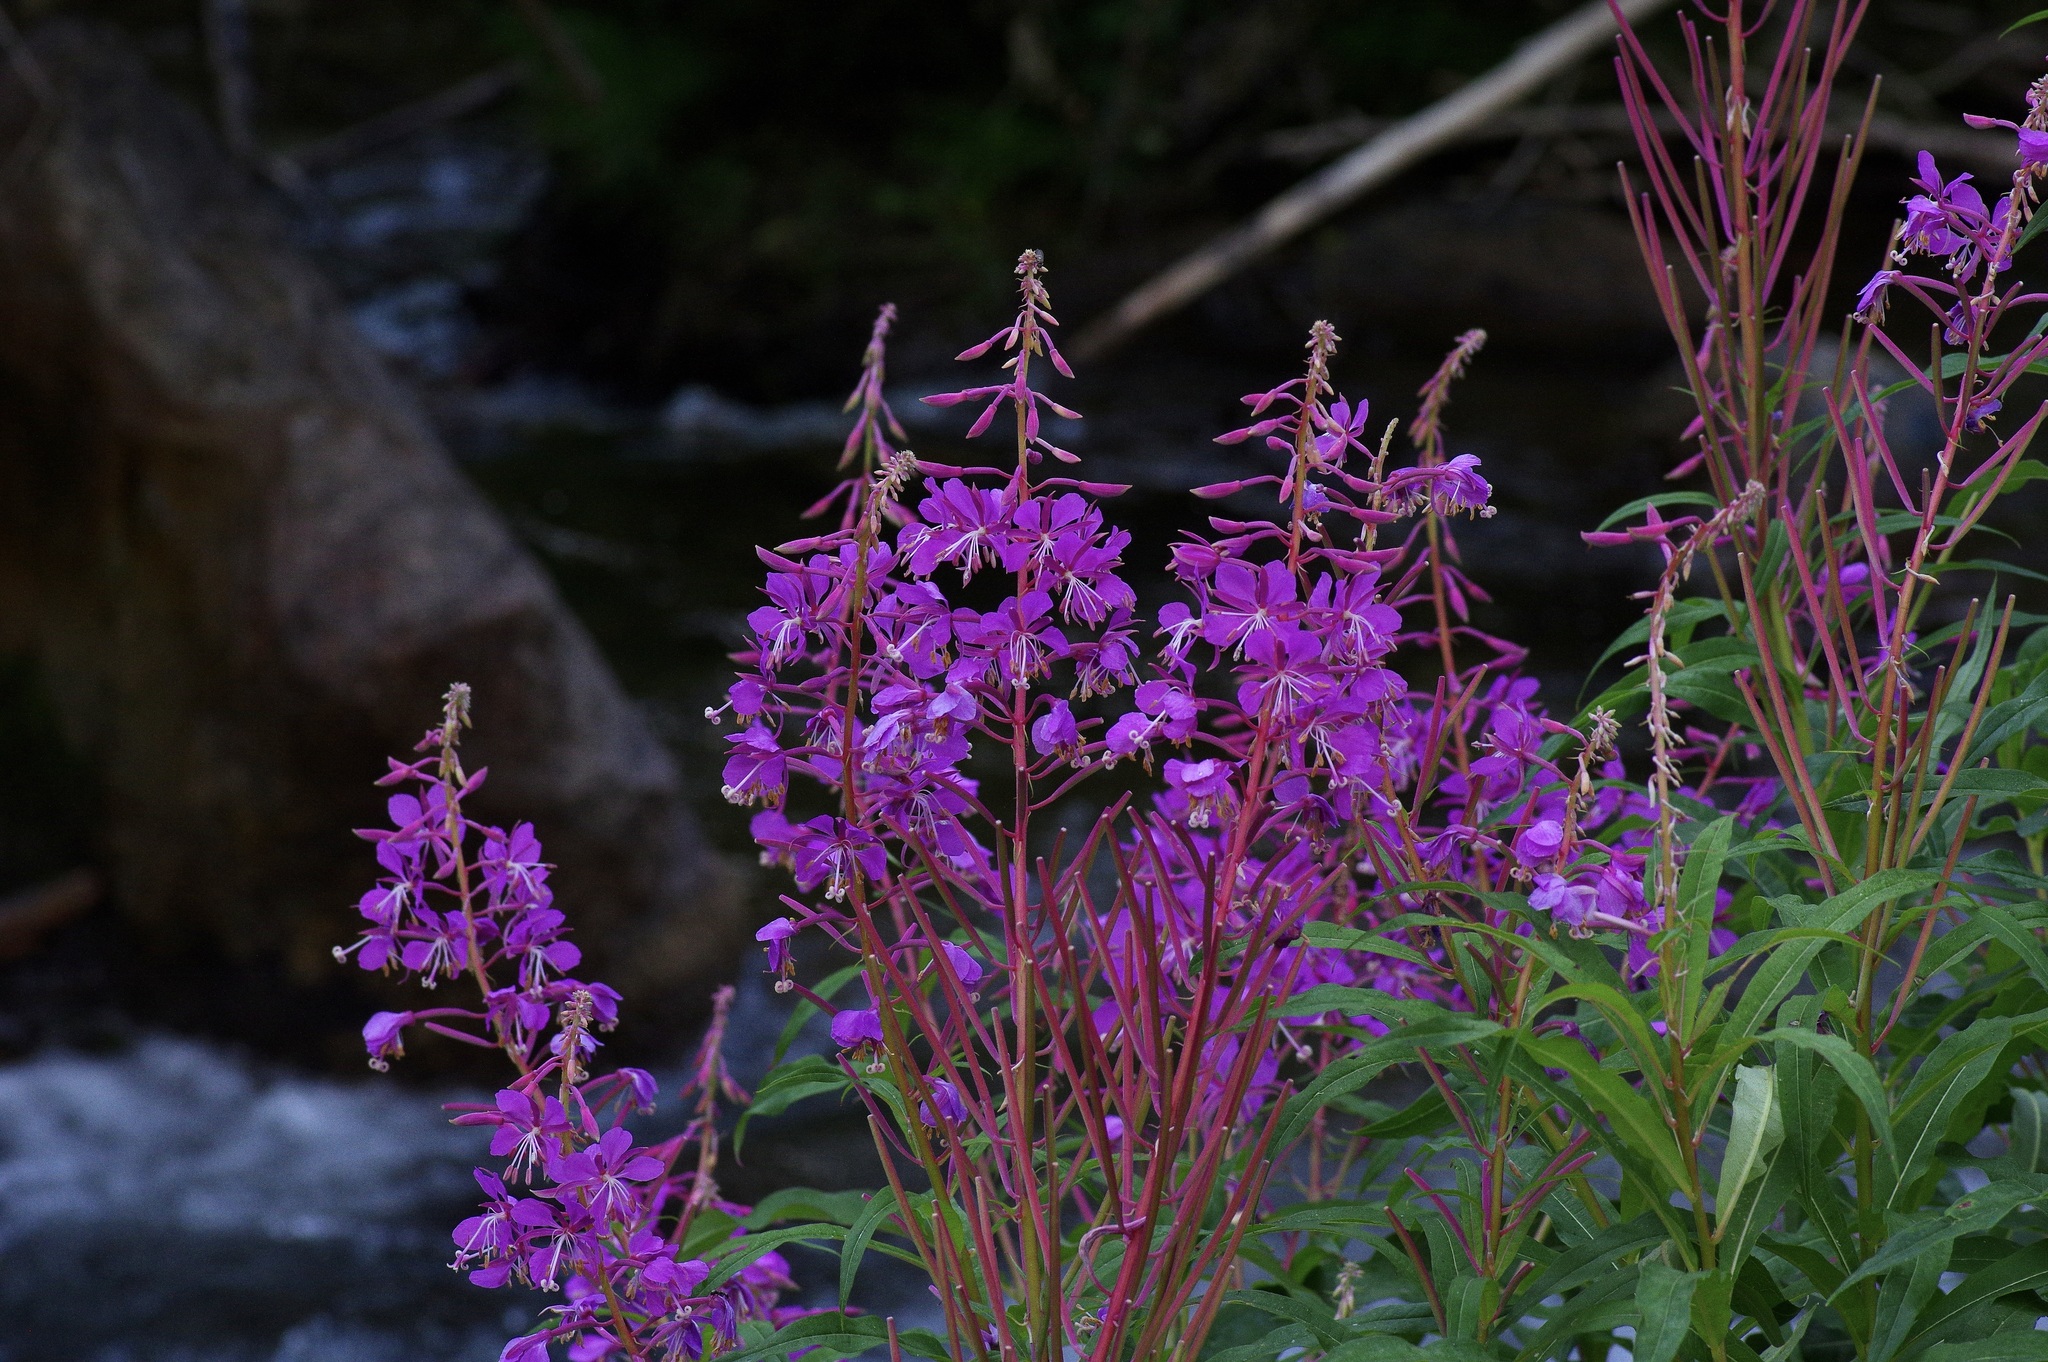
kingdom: Plantae
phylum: Tracheophyta
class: Magnoliopsida
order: Myrtales
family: Onagraceae
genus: Chamaenerion
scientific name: Chamaenerion angustifolium
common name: Fireweed
